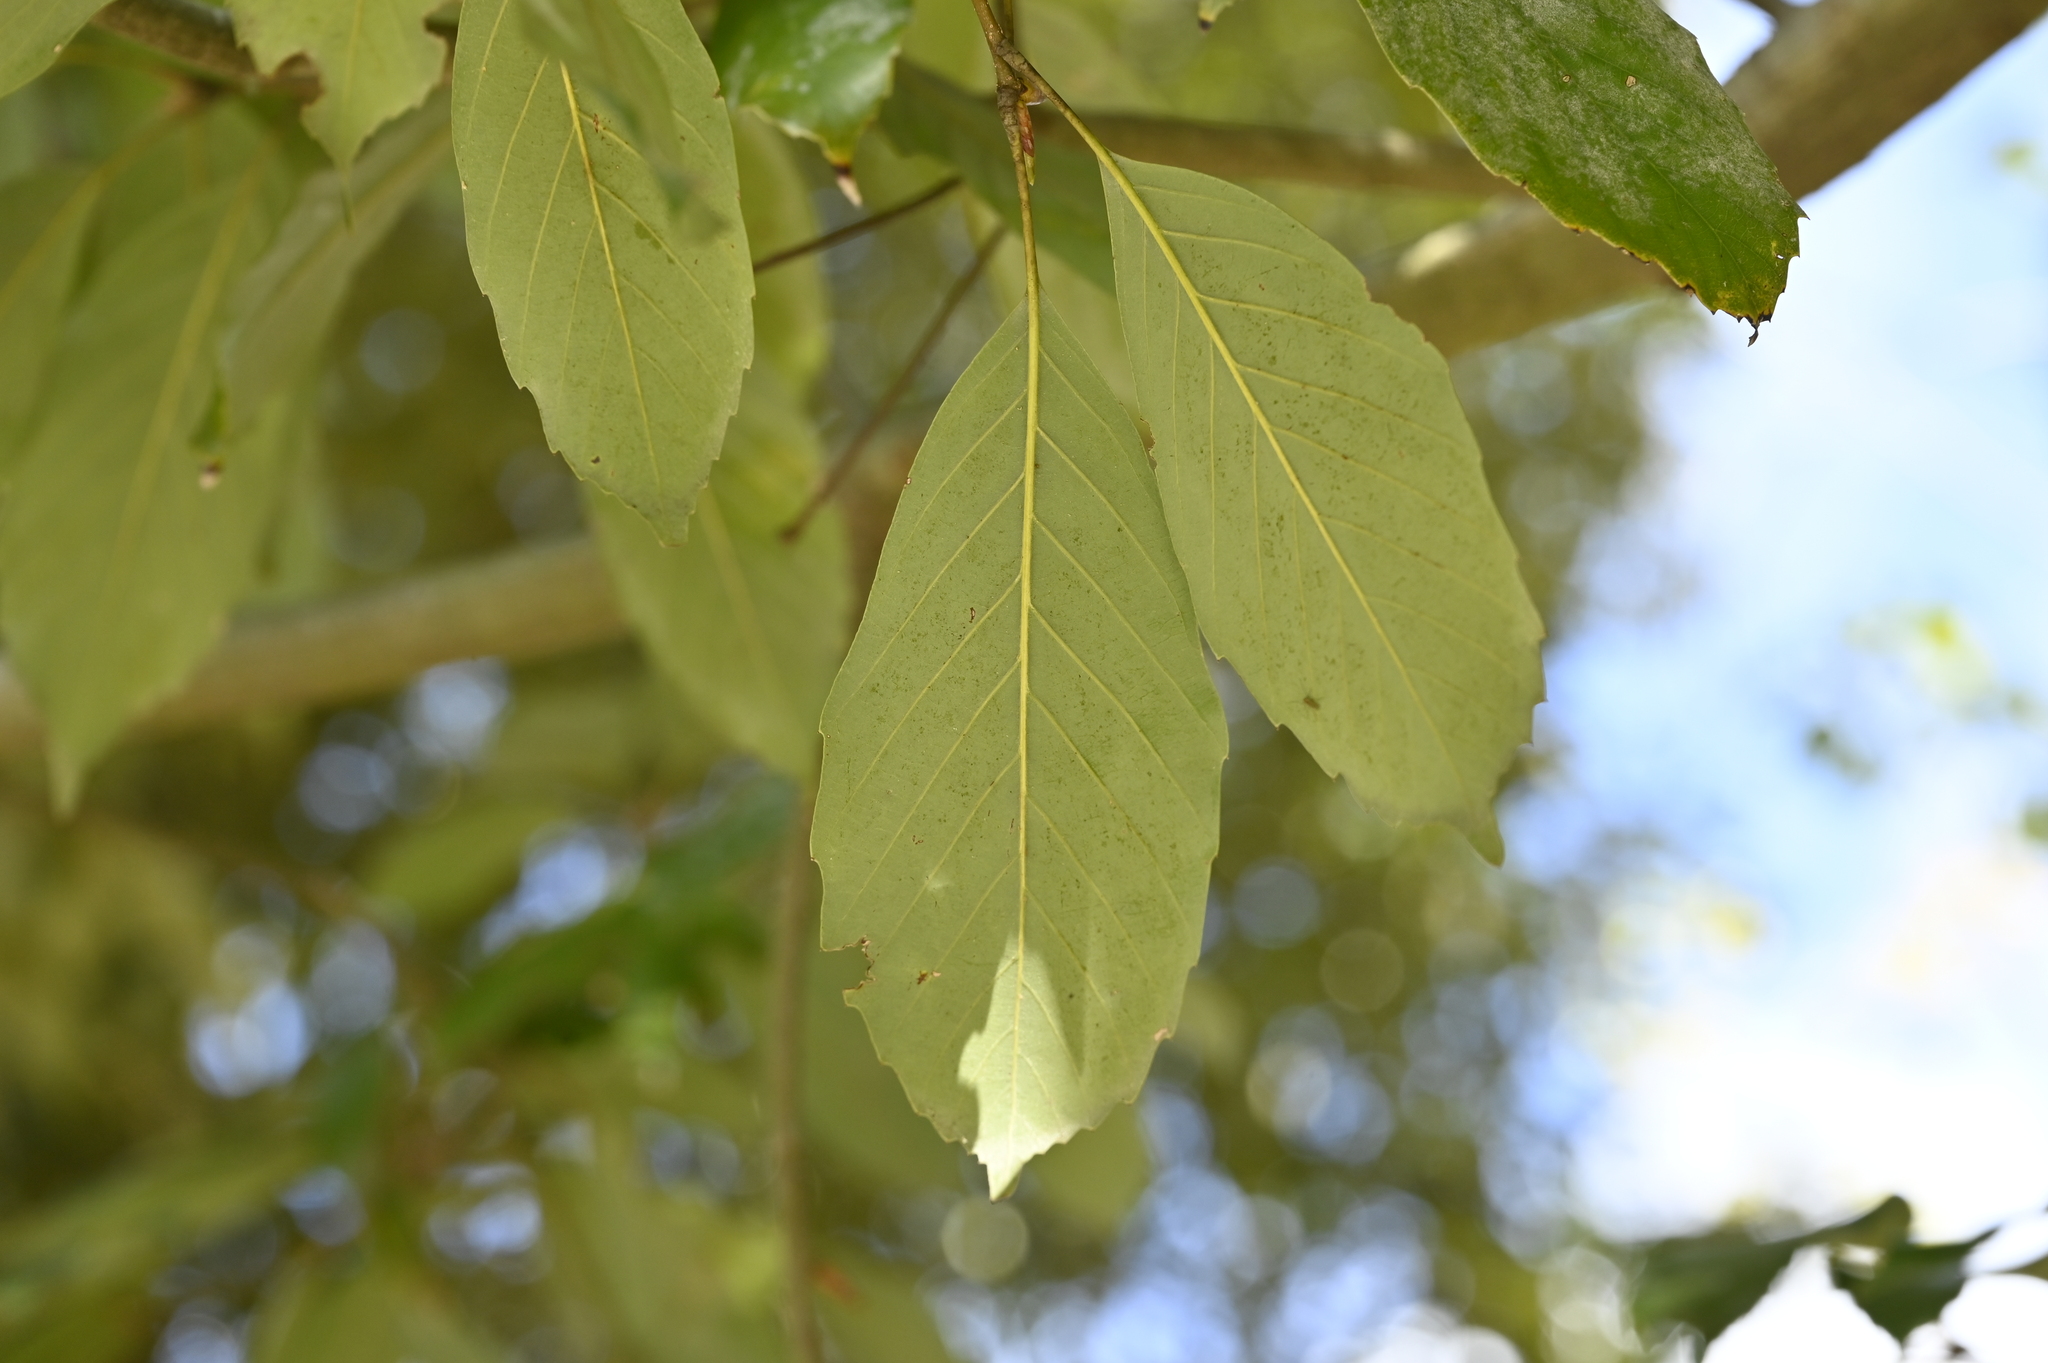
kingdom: Plantae
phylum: Tracheophyta
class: Magnoliopsida
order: Fagales
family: Fagaceae
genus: Quercus
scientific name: Quercus glauca
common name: Ring-cup oak
